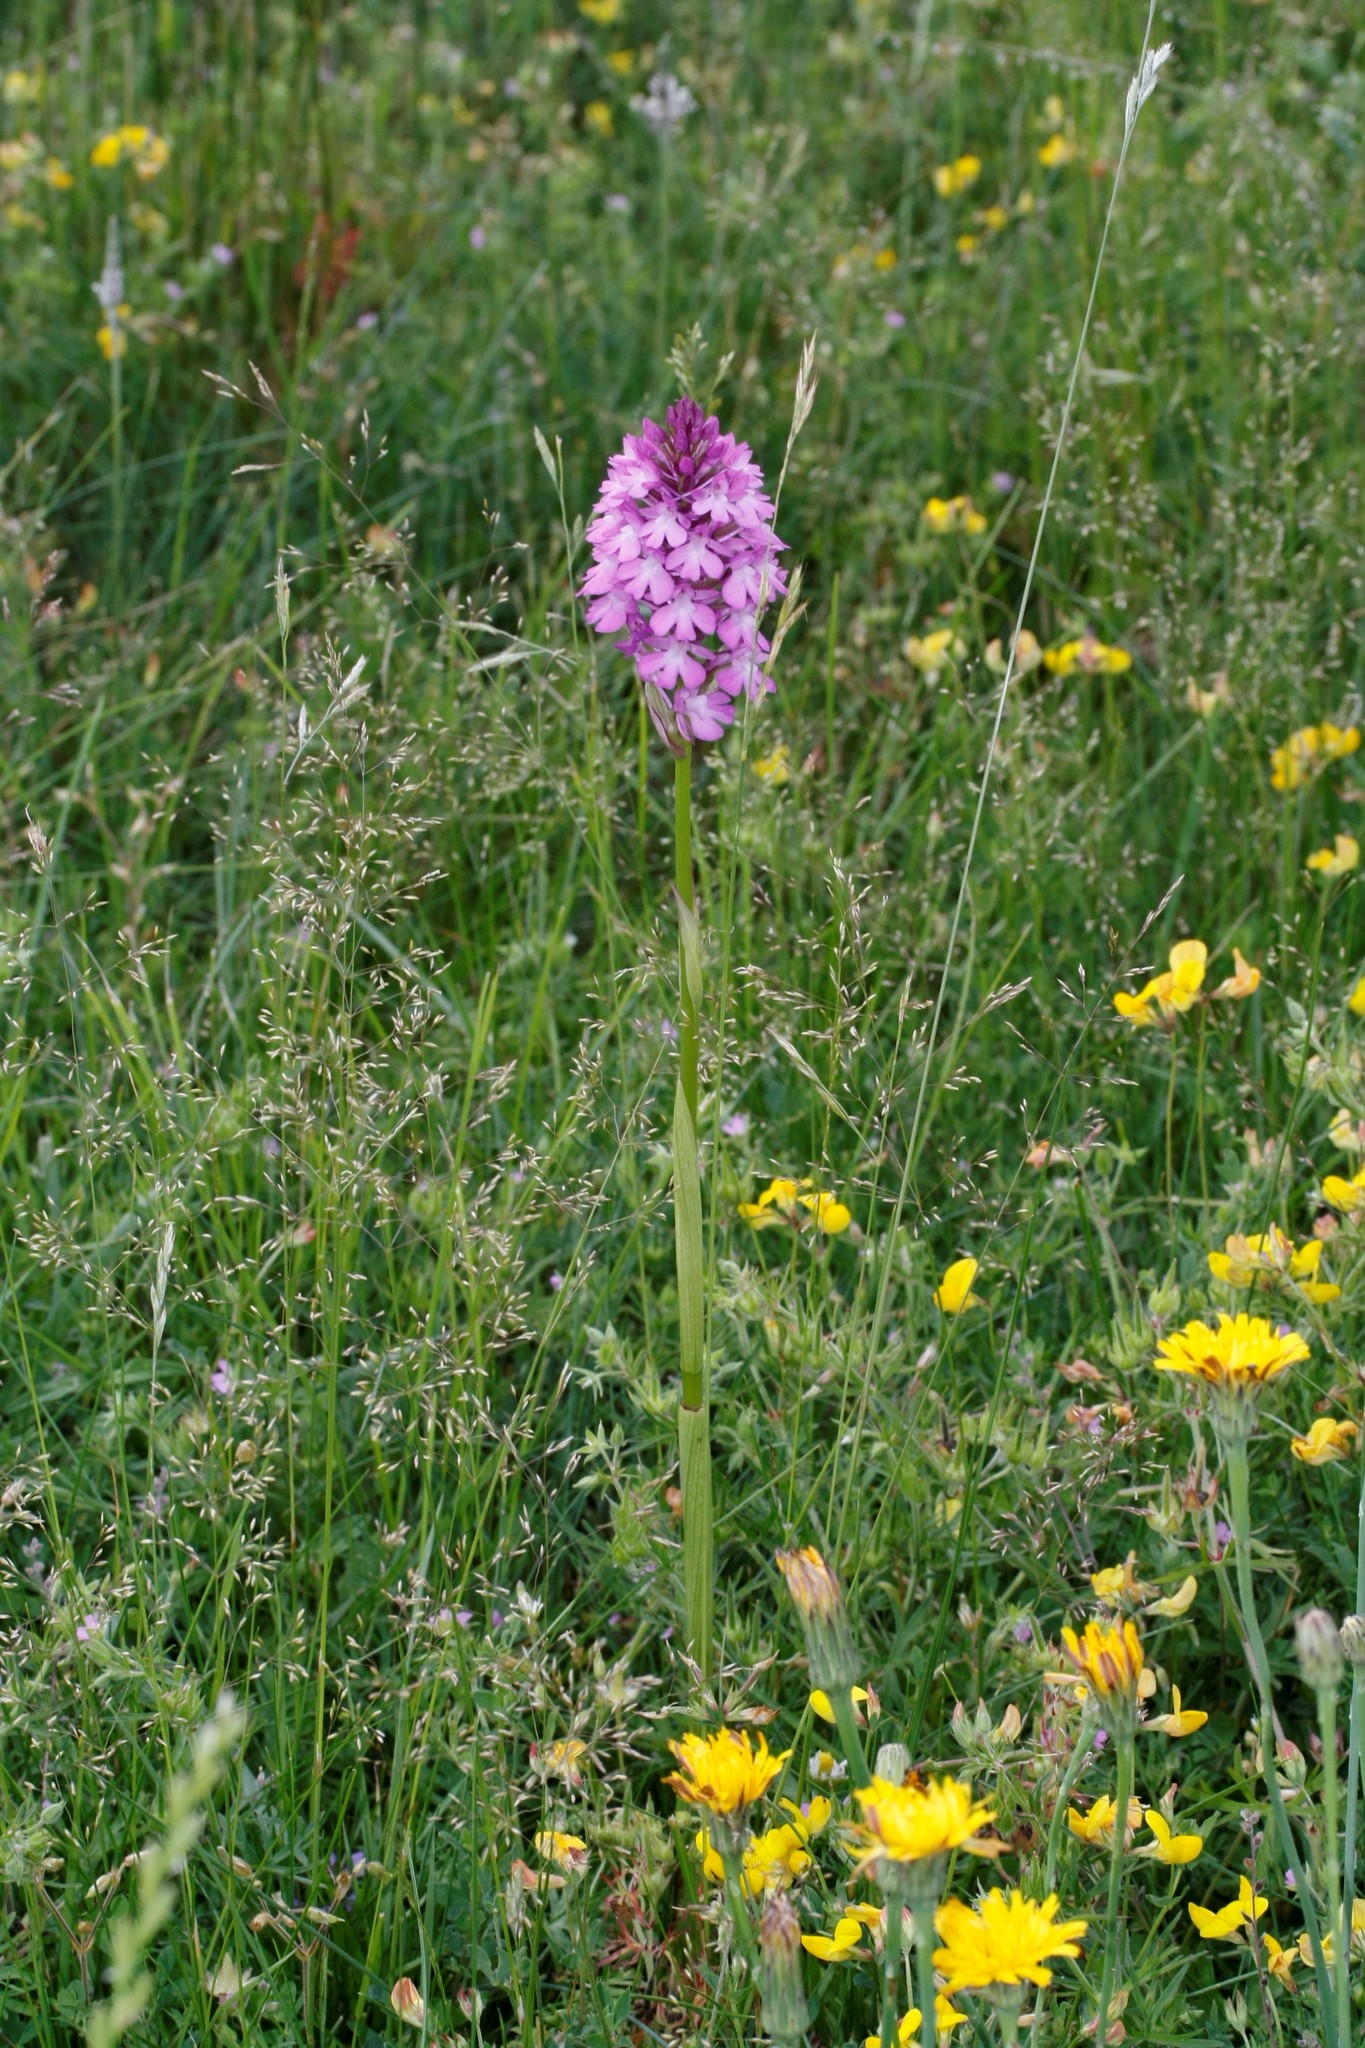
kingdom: Plantae
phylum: Tracheophyta
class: Liliopsida
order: Asparagales
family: Orchidaceae
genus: Anacamptis
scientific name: Anacamptis pyramidalis
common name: Pyramidal orchid
